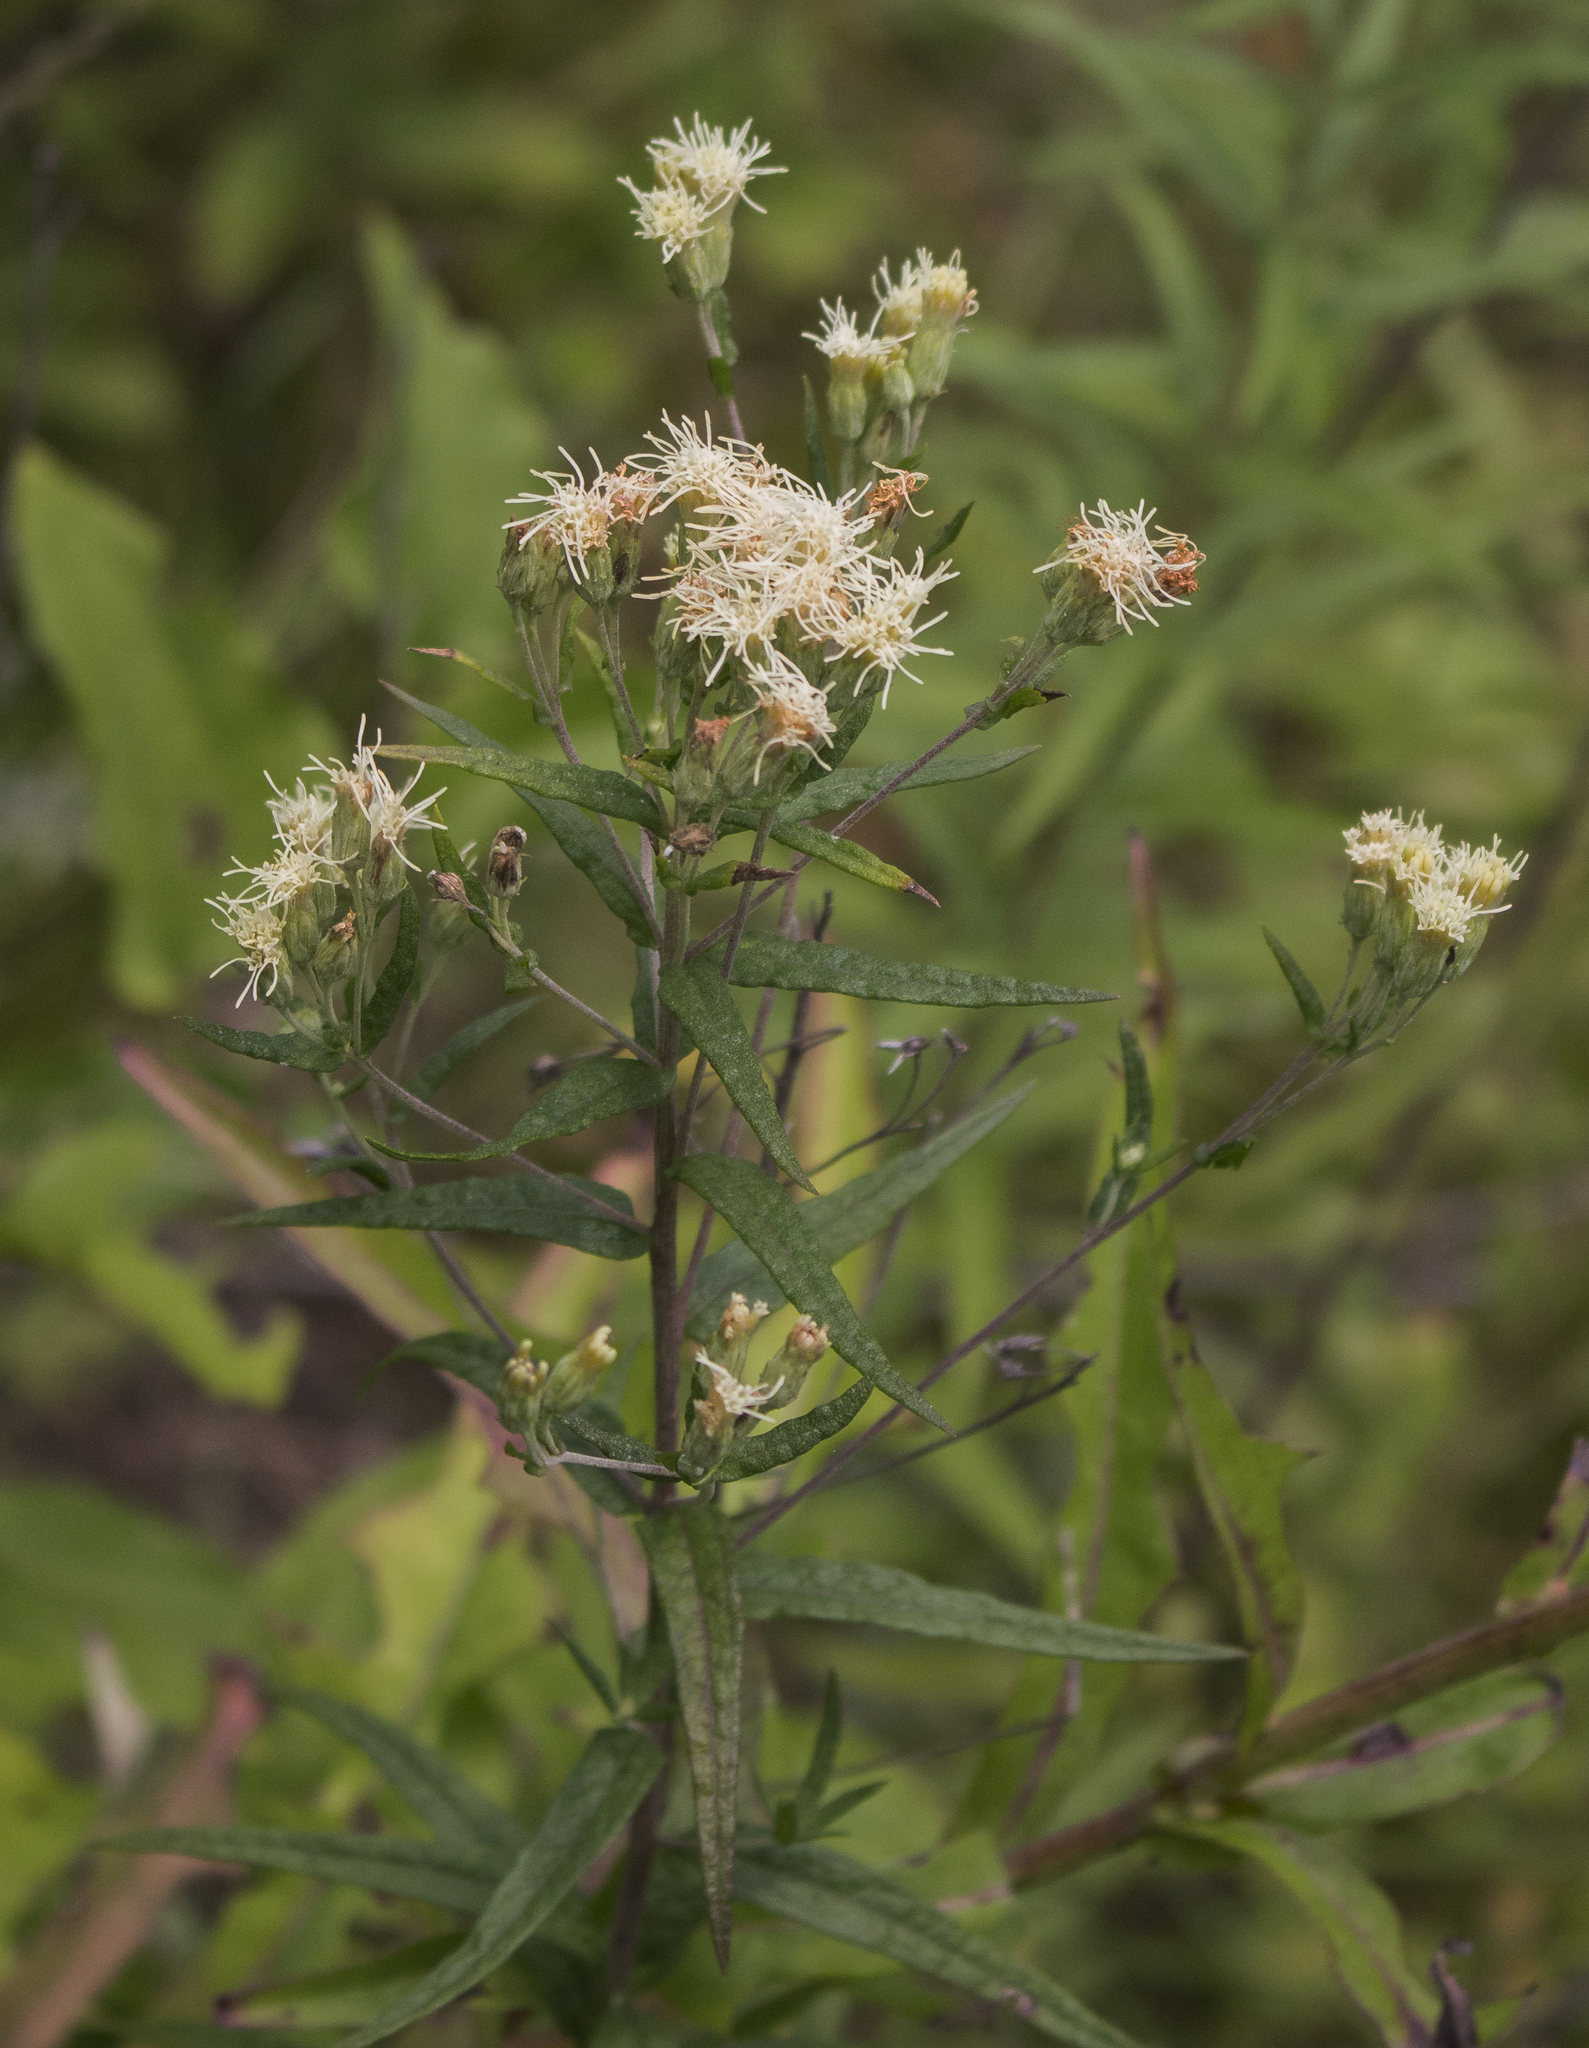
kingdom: Plantae
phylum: Tracheophyta
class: Magnoliopsida
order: Asterales
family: Asteraceae
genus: Brickellia
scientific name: Brickellia eupatorioides
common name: False boneset
